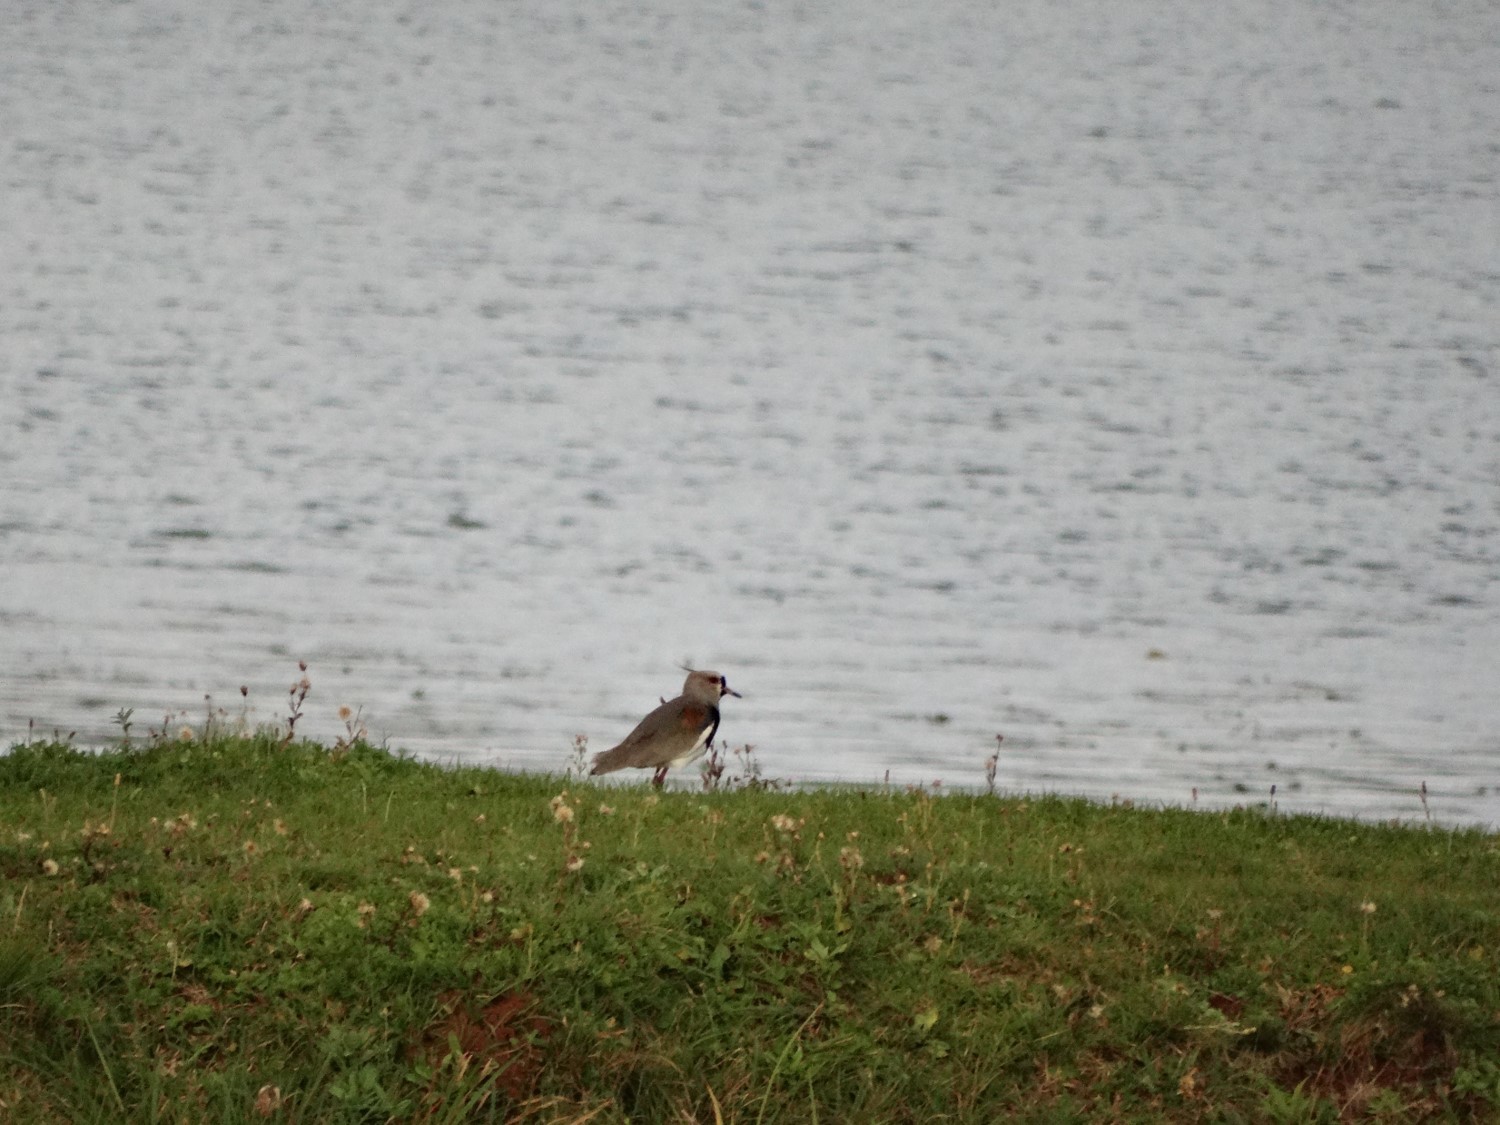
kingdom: Animalia
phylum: Chordata
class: Aves
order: Charadriiformes
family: Charadriidae
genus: Vanellus
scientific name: Vanellus chilensis
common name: Southern lapwing
